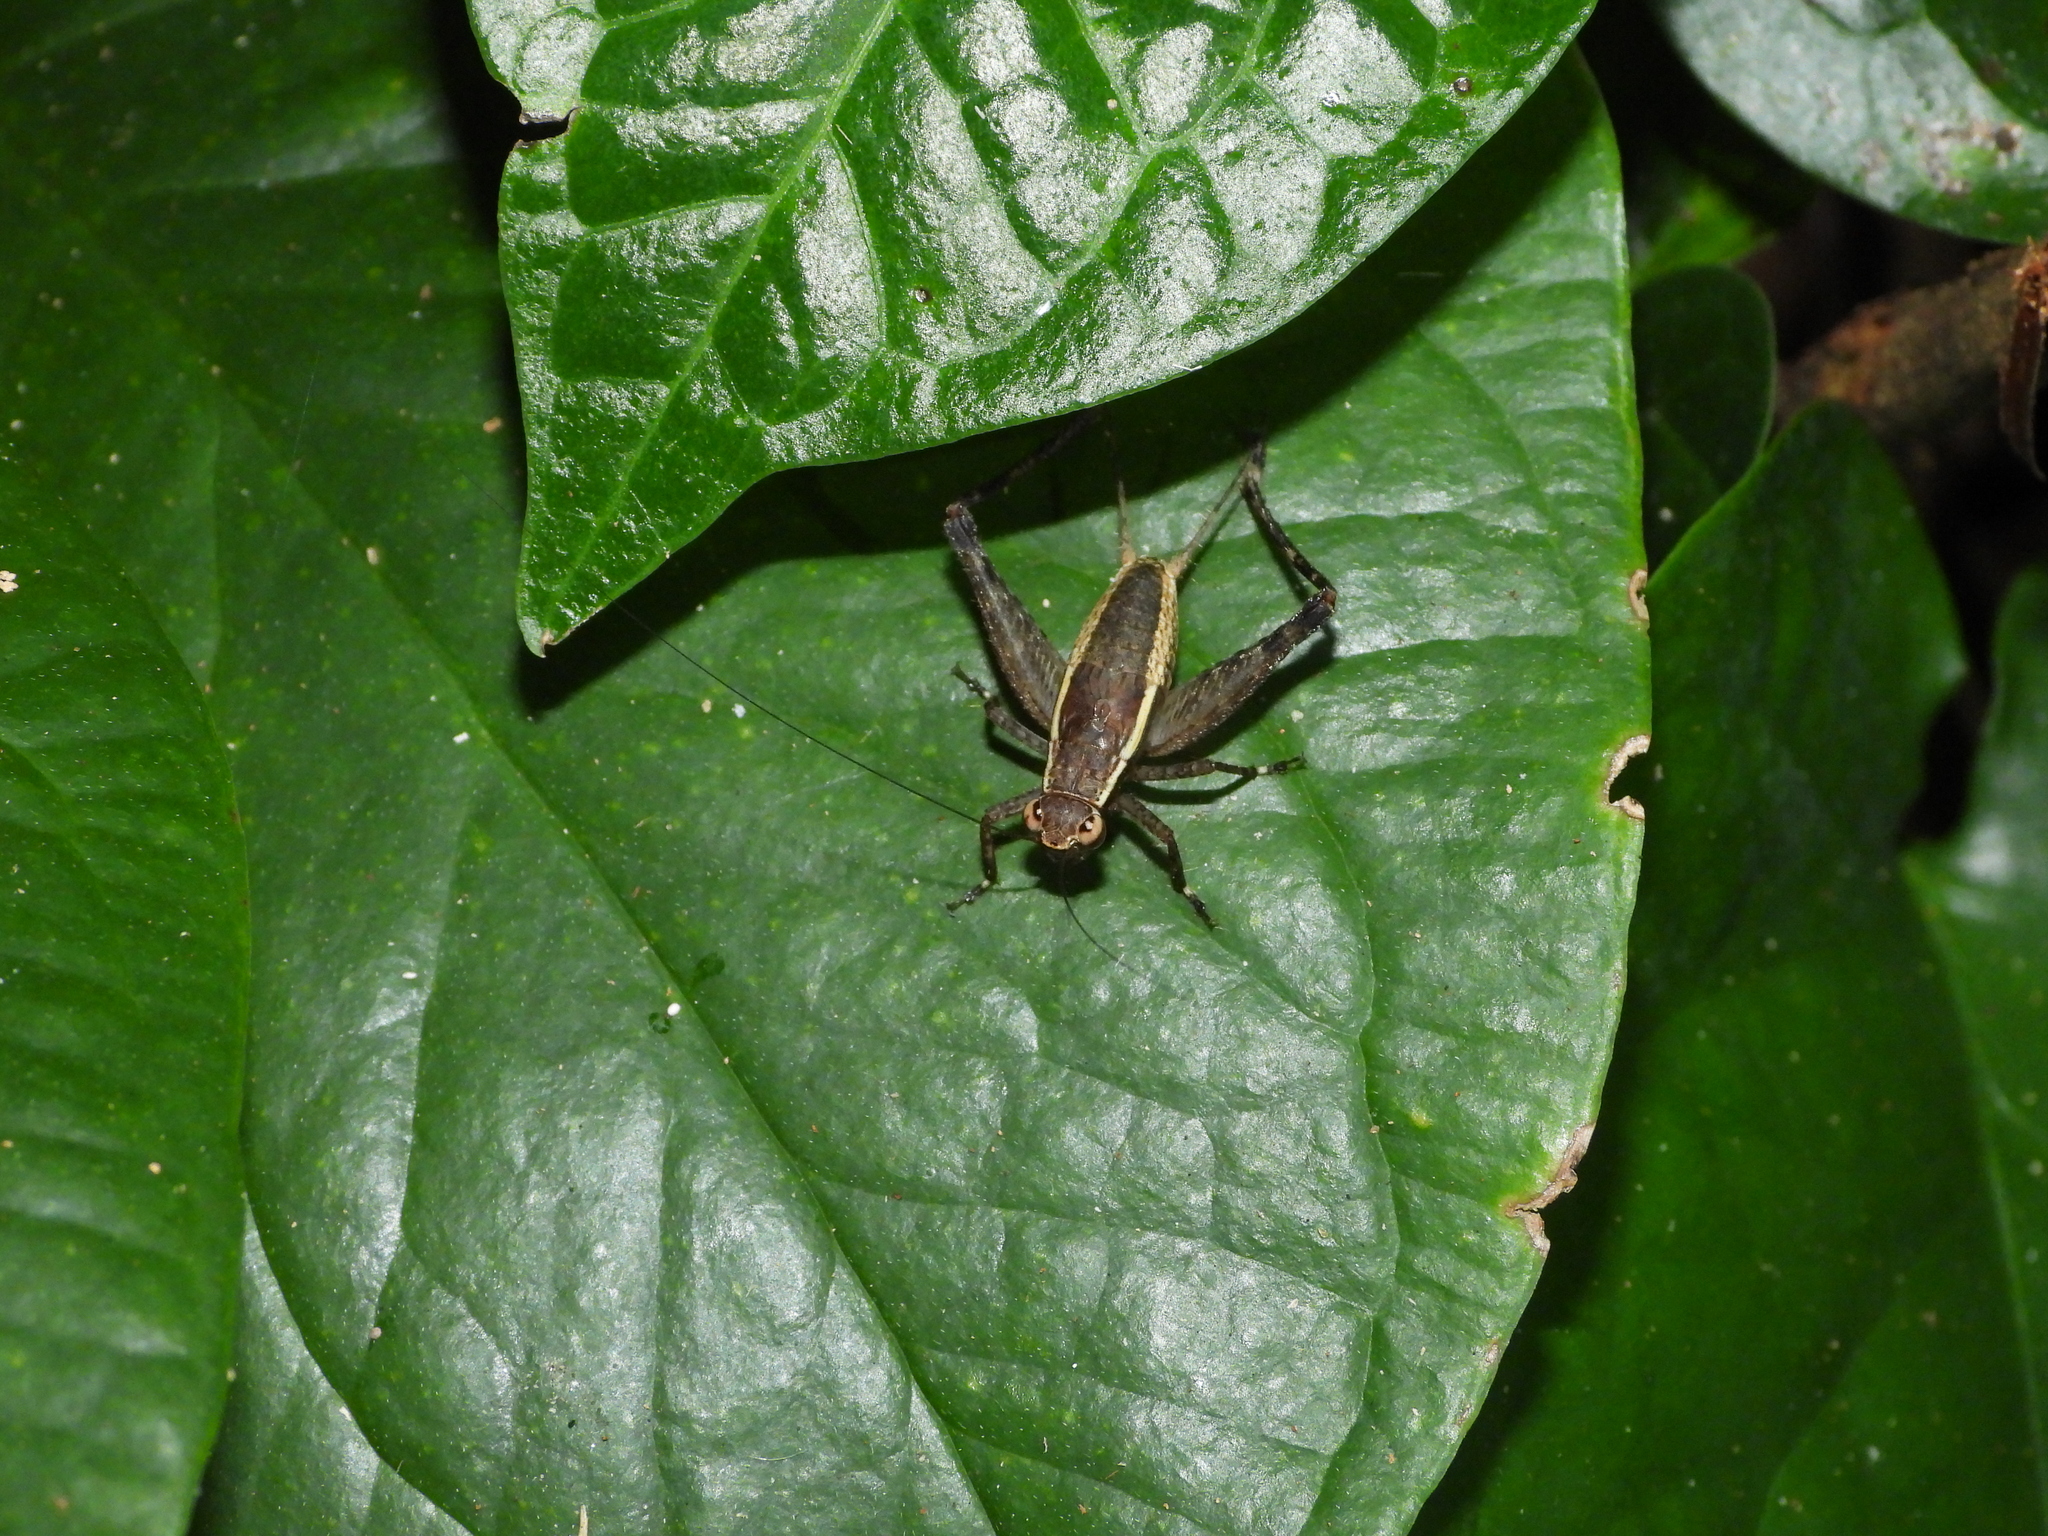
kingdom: Animalia
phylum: Arthropoda
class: Insecta
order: Orthoptera
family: Gryllidae
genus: Lebinthus
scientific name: Lebinthus lanyuensis
